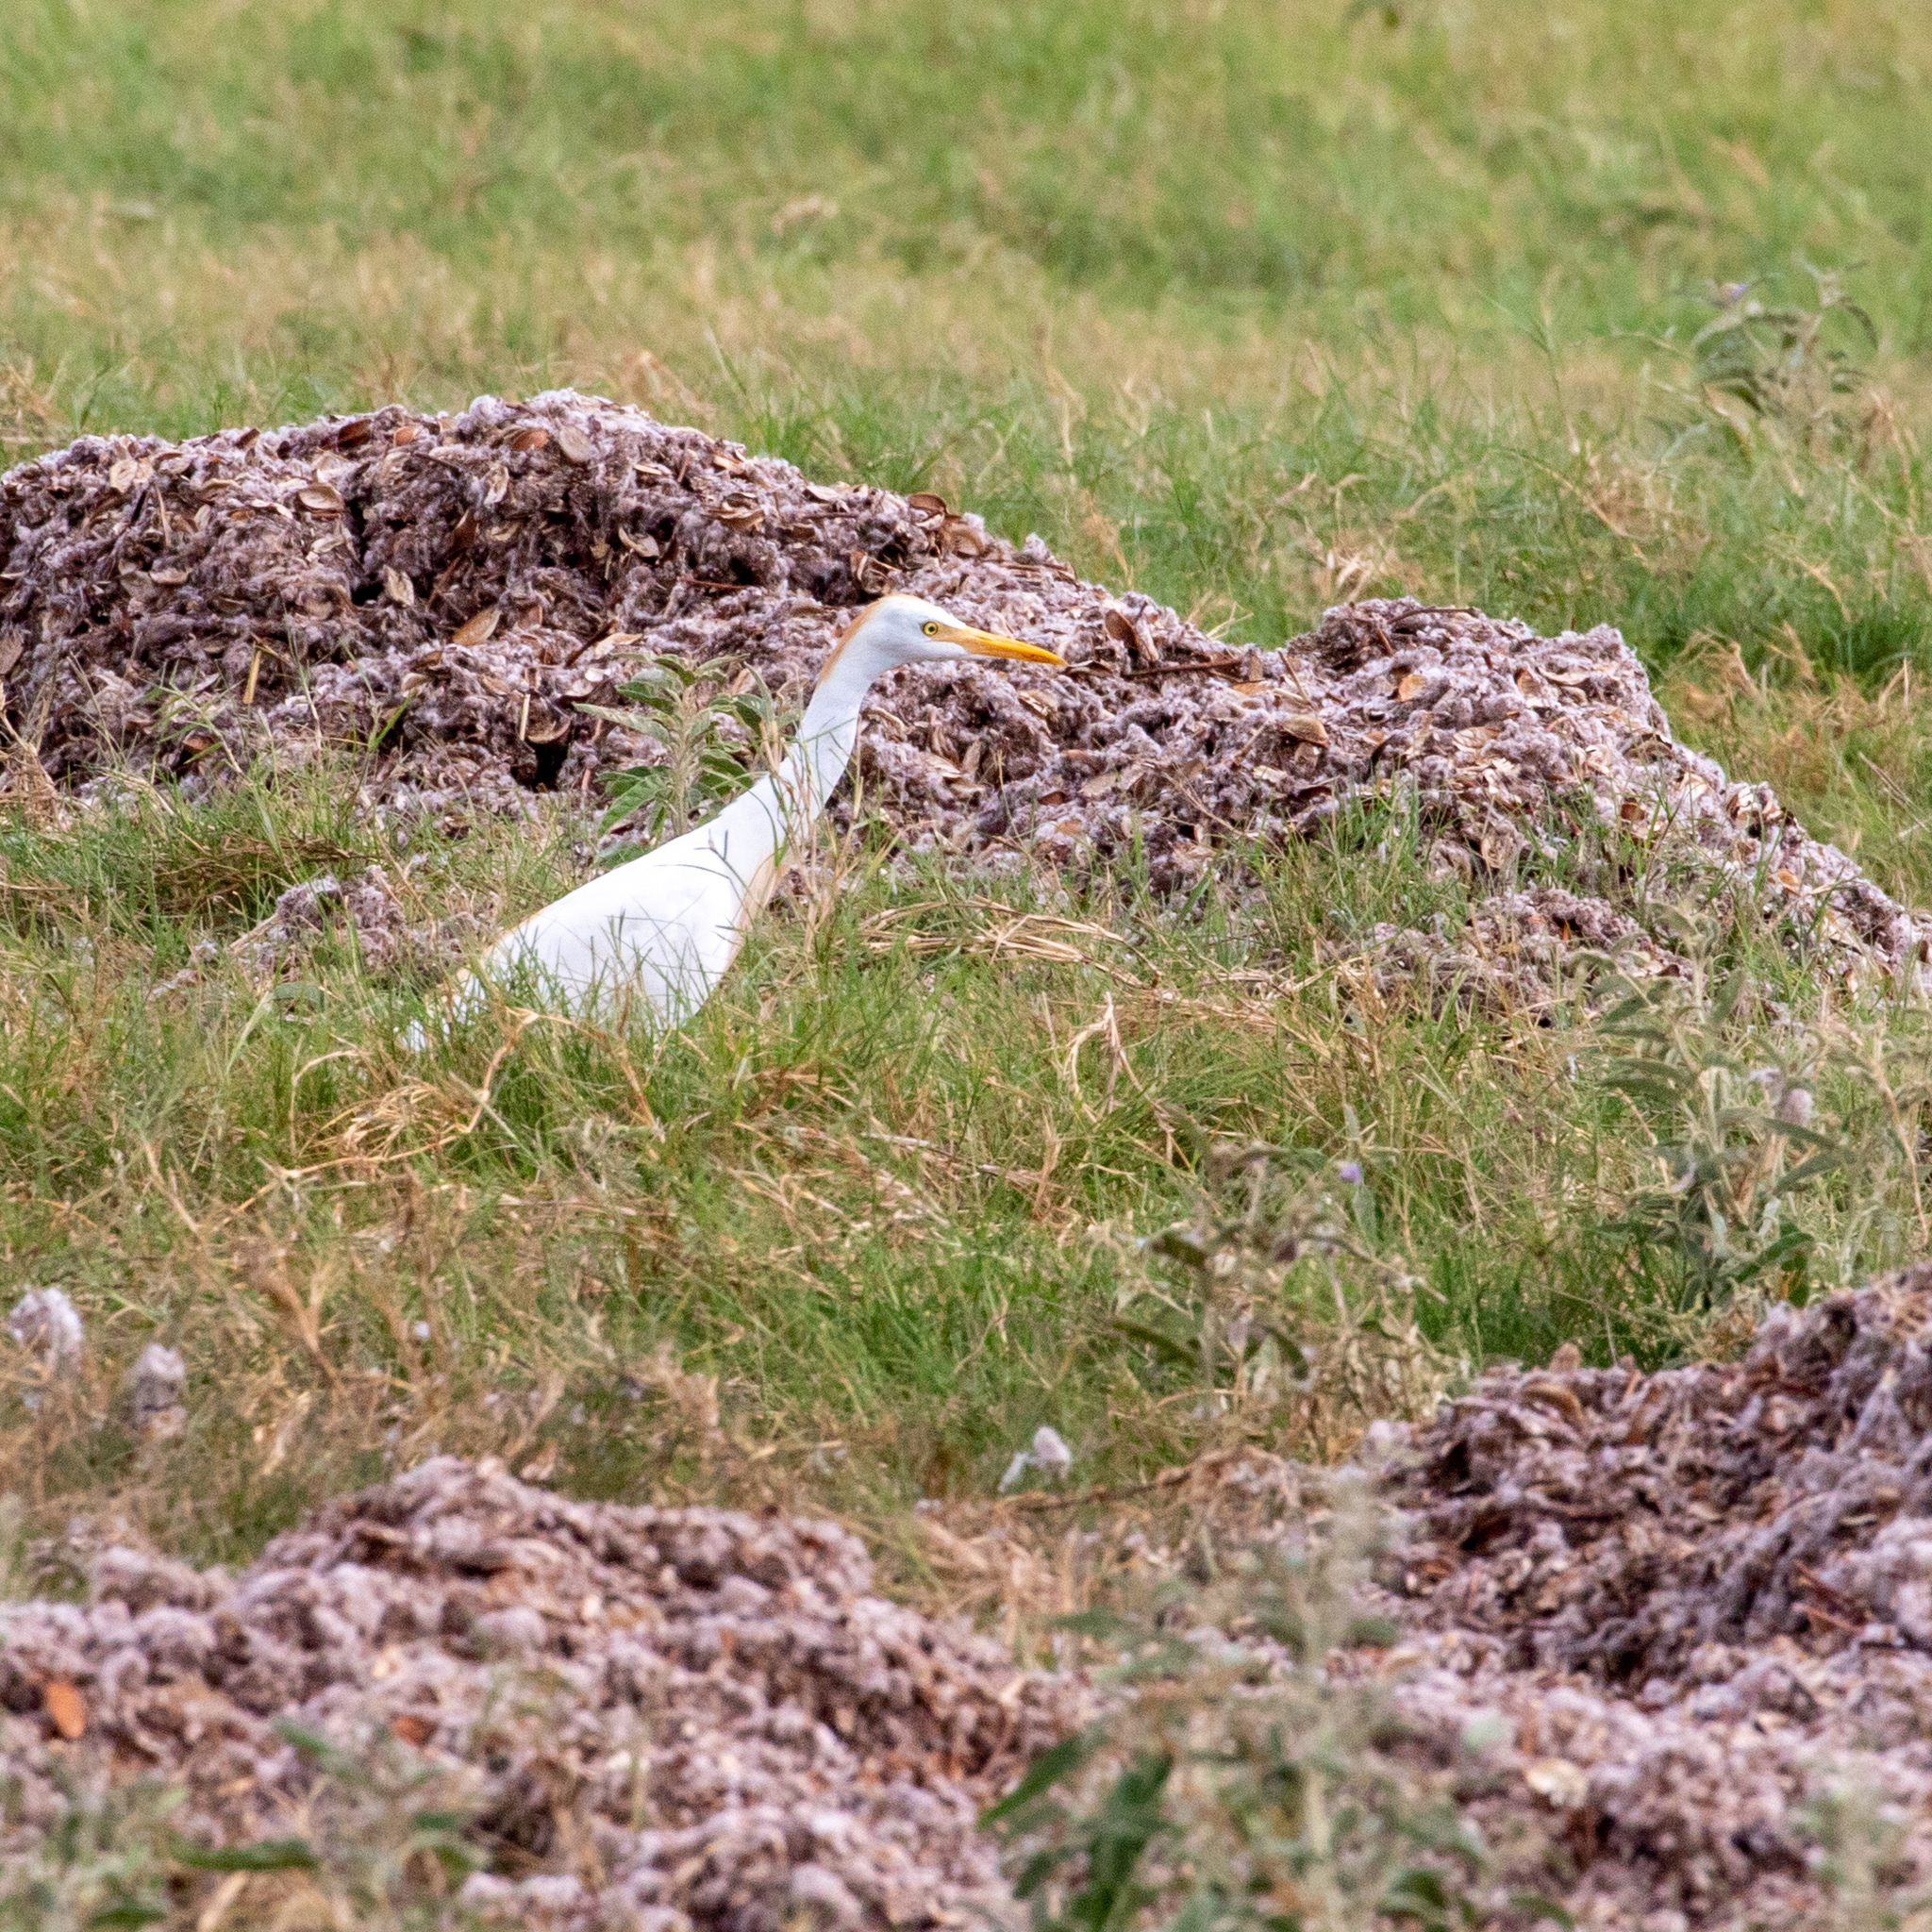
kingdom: Animalia
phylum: Chordata
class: Aves
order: Pelecaniformes
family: Ardeidae
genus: Bubulcus
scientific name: Bubulcus ibis
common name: Cattle egret
